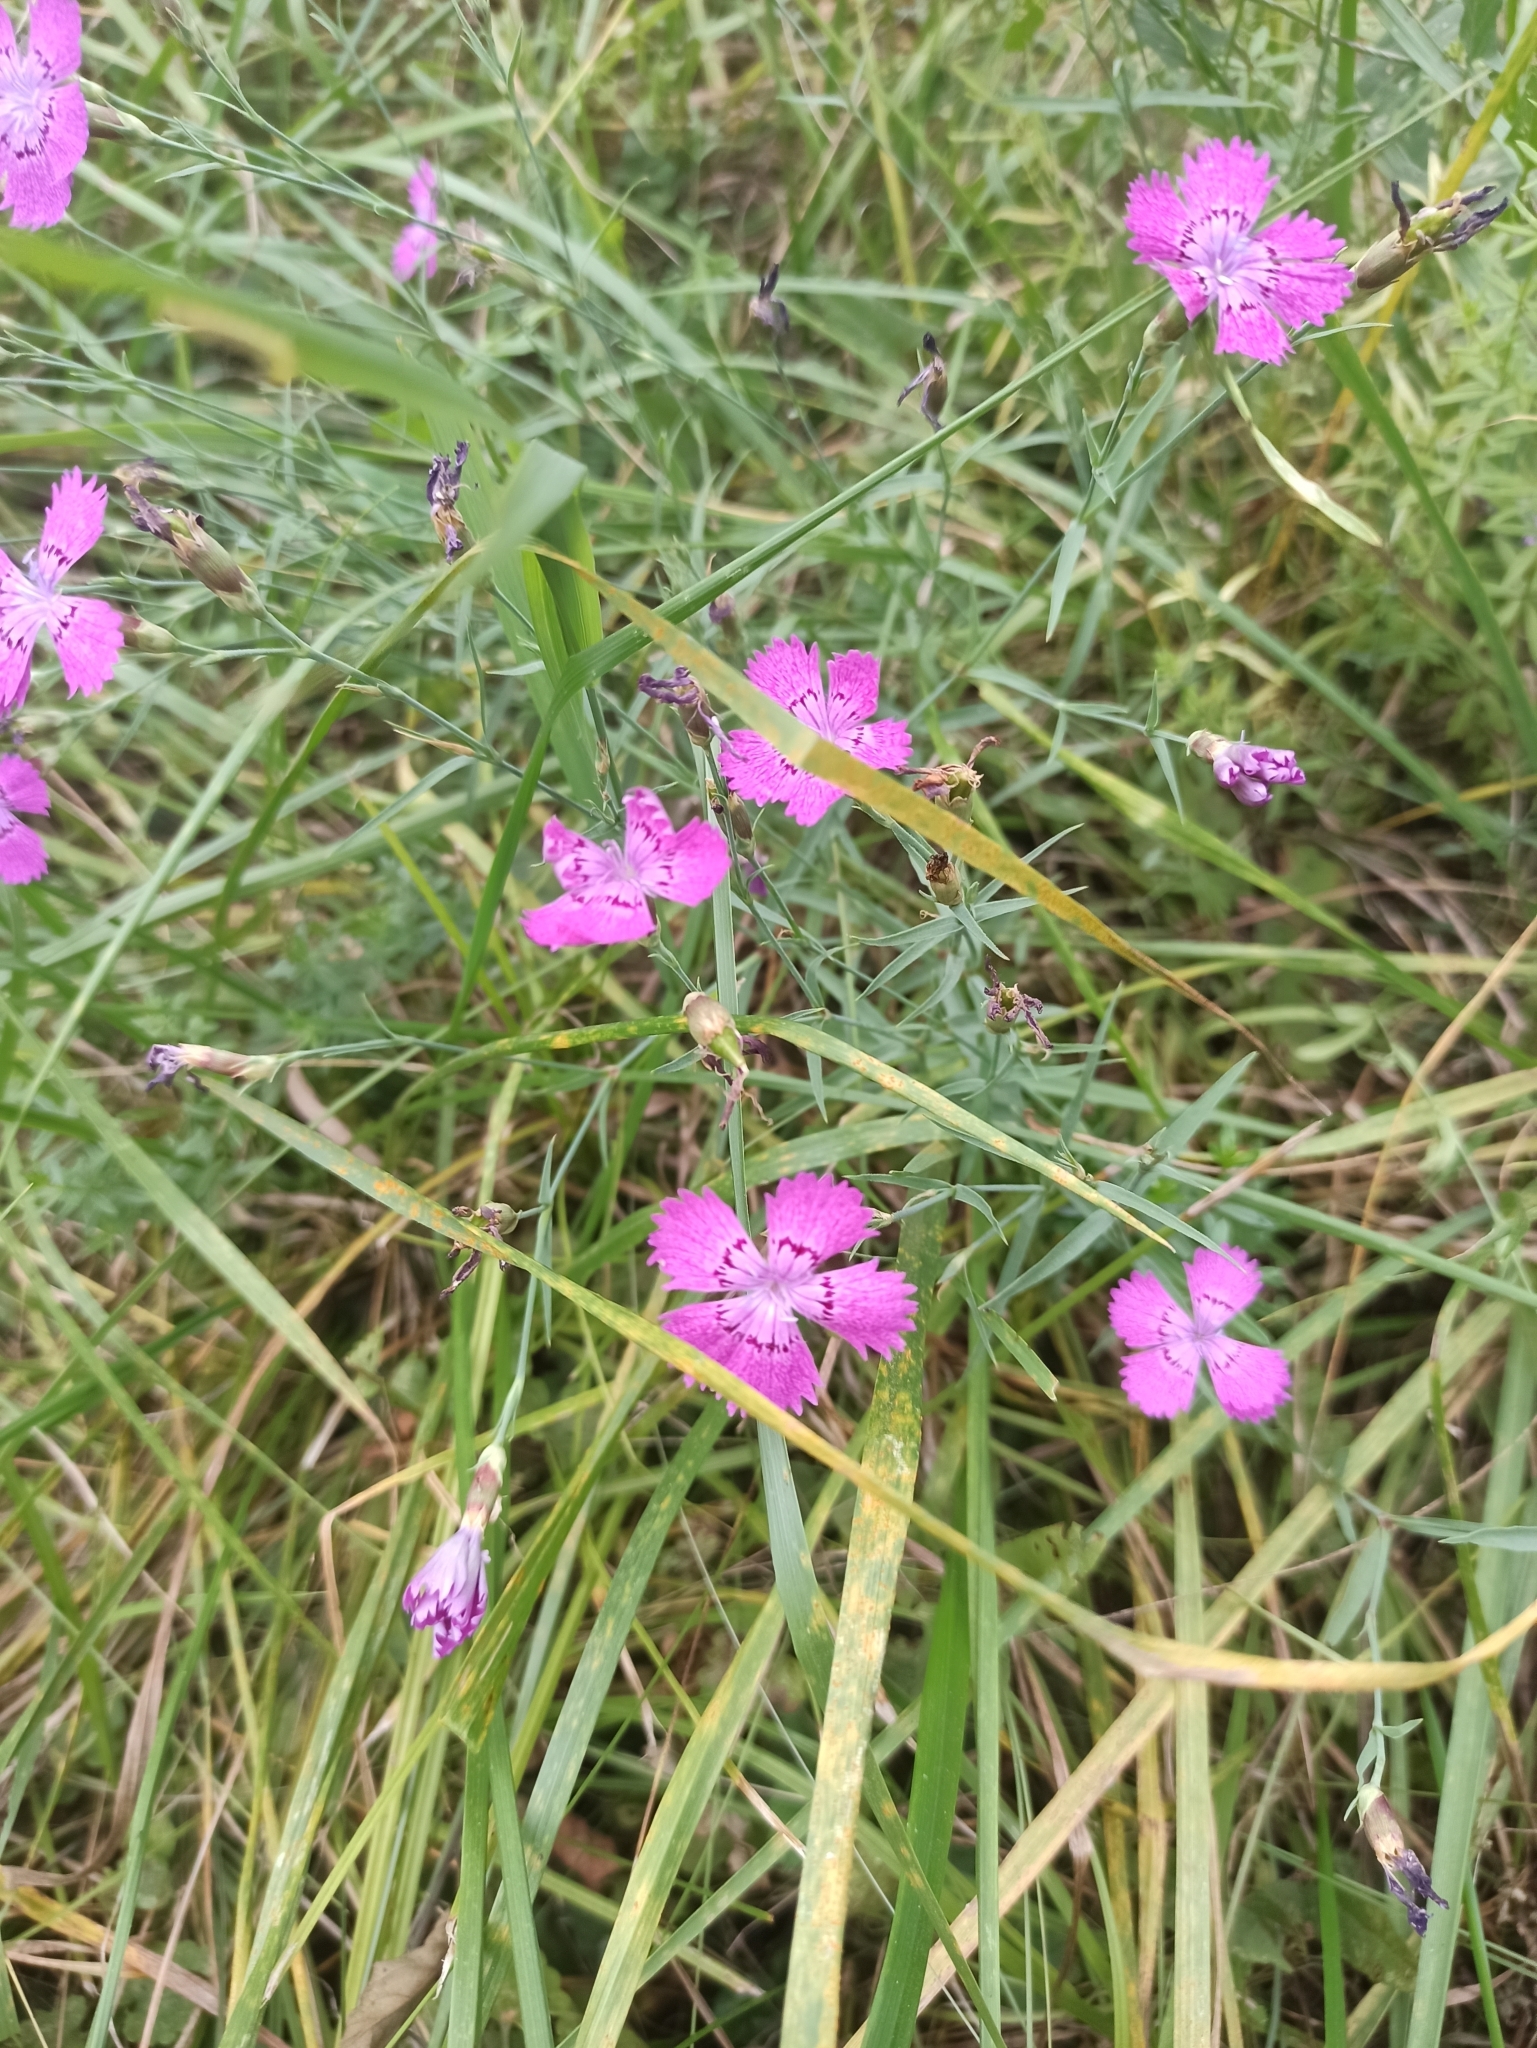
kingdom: Plantae
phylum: Tracheophyta
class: Magnoliopsida
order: Caryophyllales
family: Caryophyllaceae
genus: Dianthus
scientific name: Dianthus chinensis
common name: Rainbow pink
